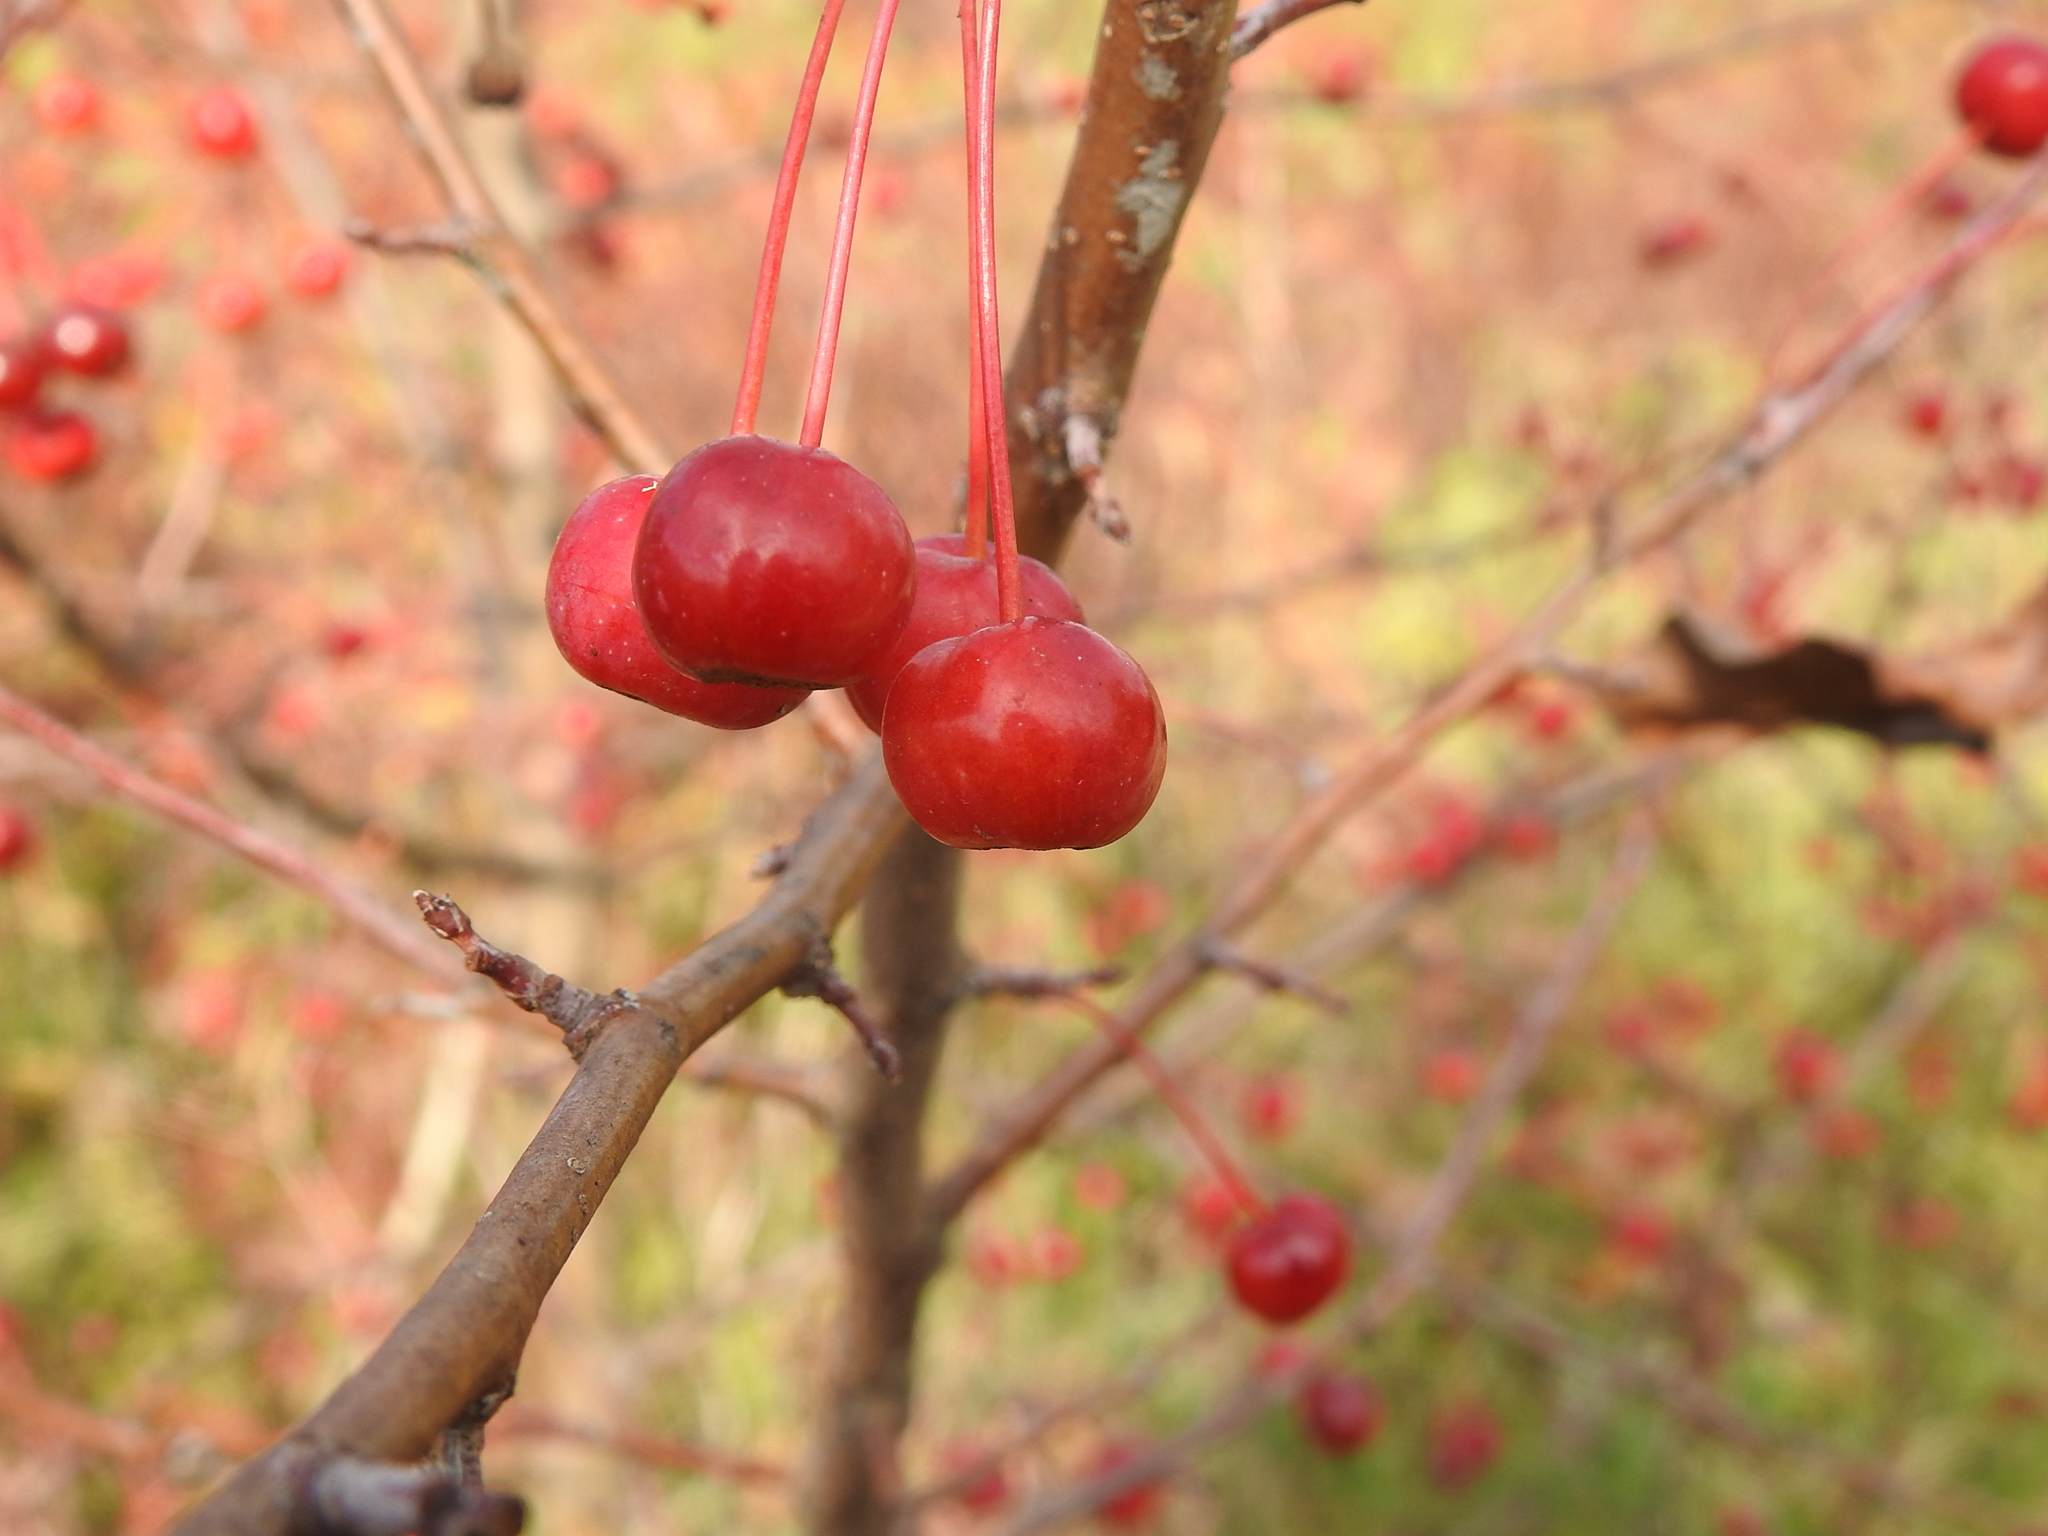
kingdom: Plantae
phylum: Tracheophyta
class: Magnoliopsida
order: Rosales
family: Rosaceae
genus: Malus
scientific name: Malus baccata
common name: Siberian crab
